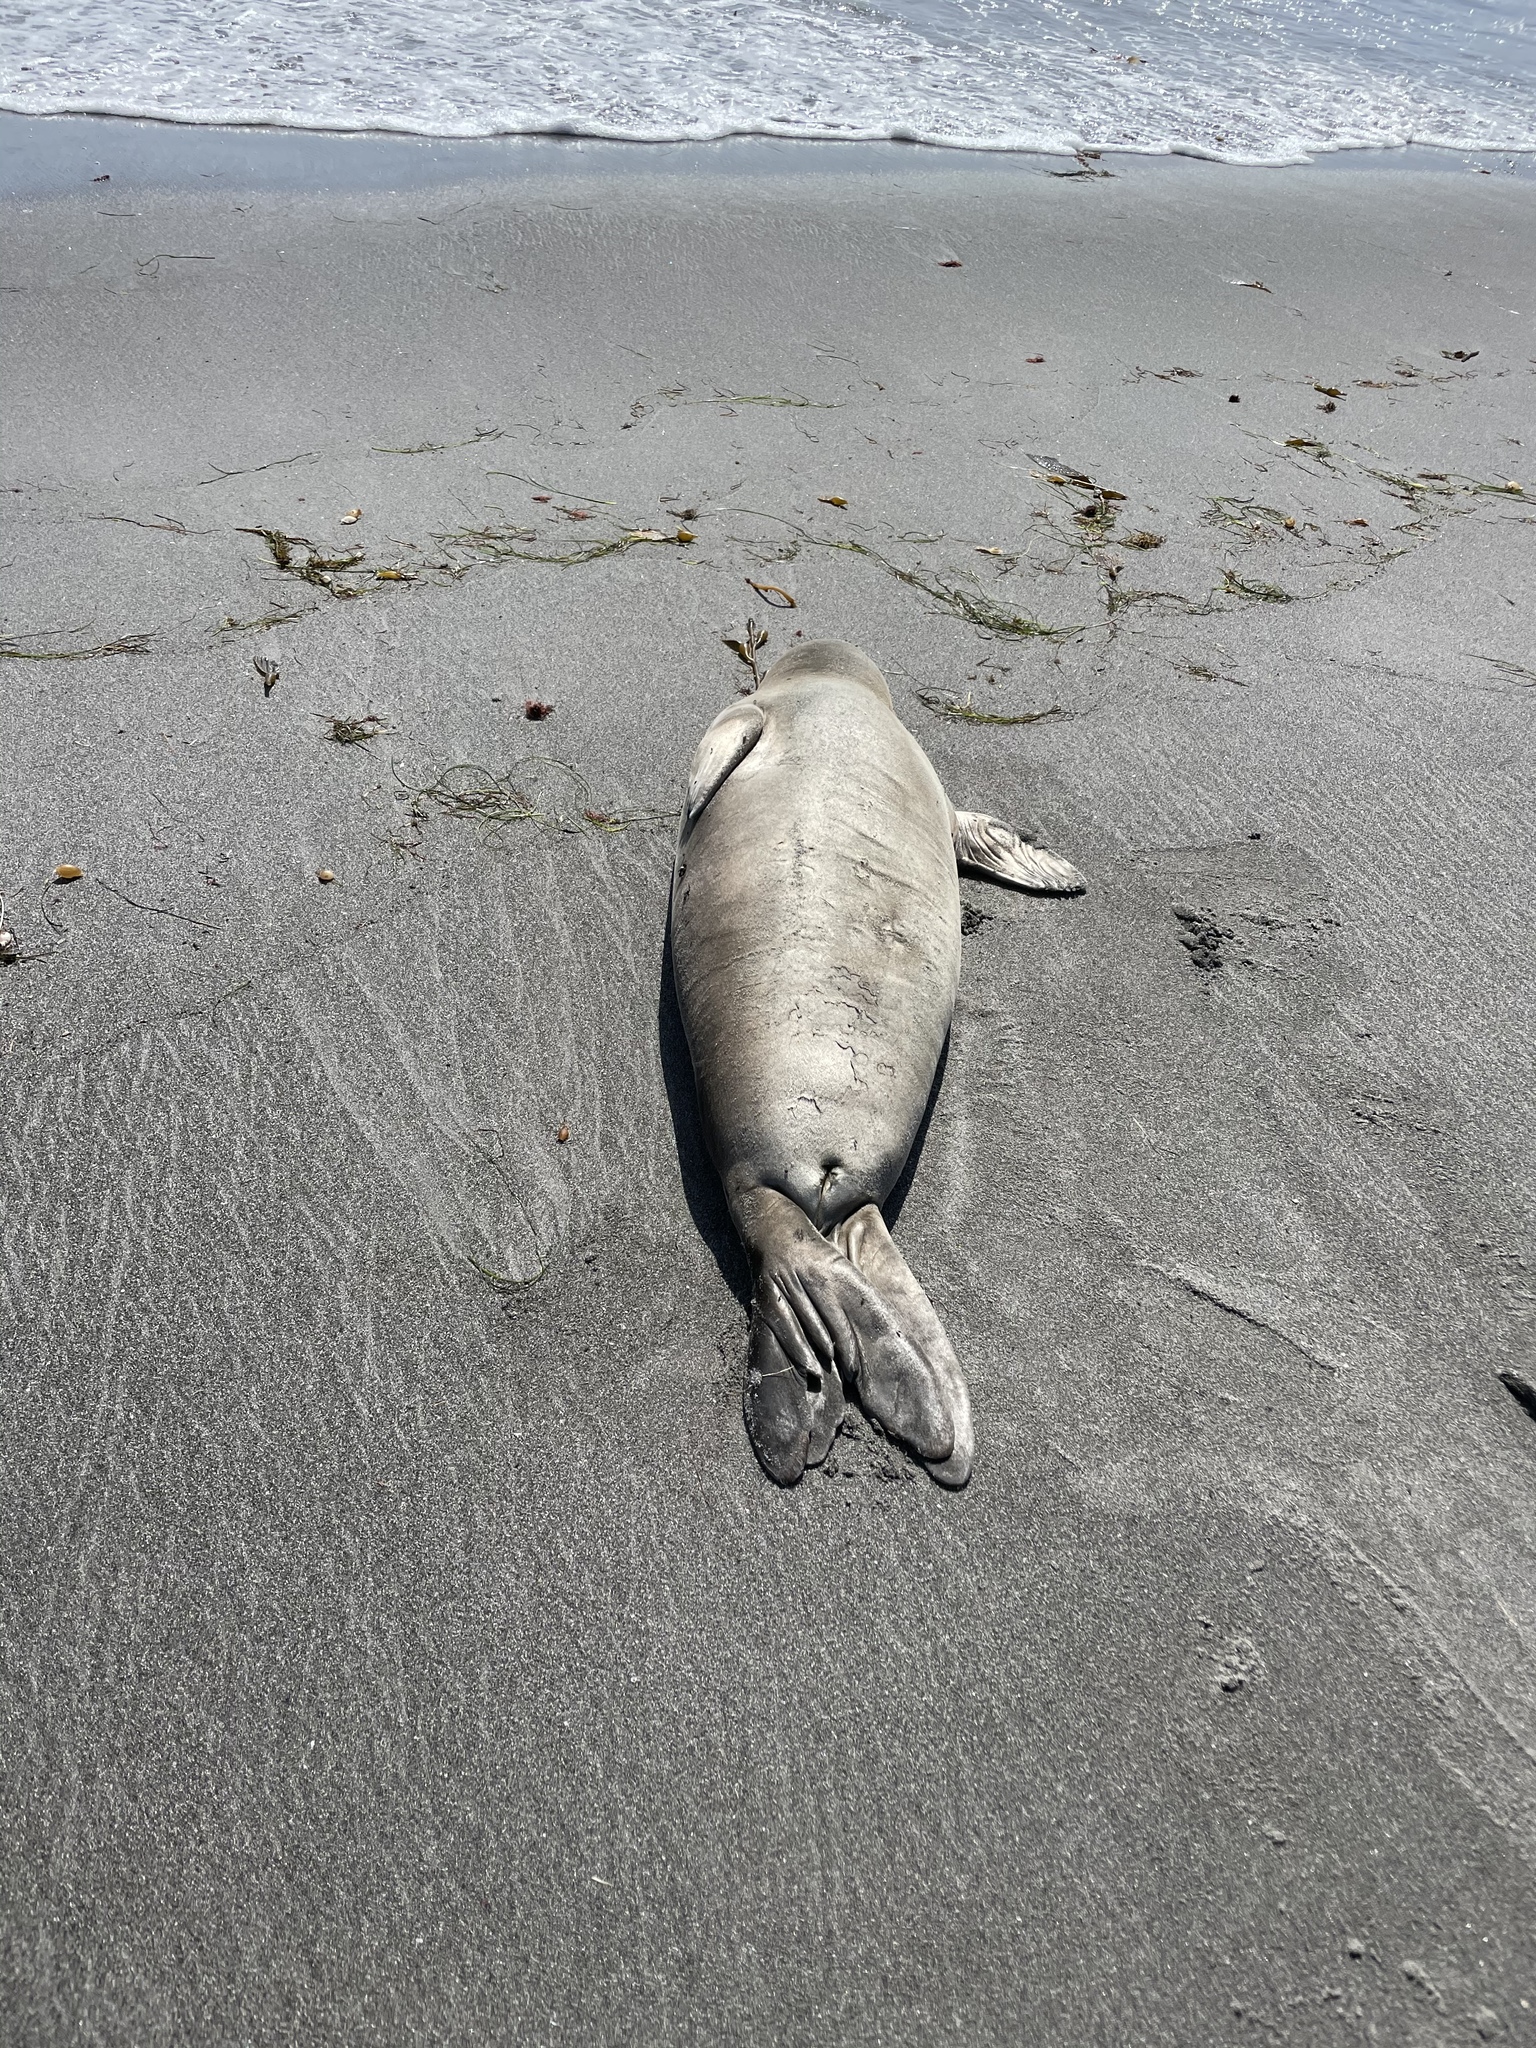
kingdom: Animalia
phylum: Chordata
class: Mammalia
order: Carnivora
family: Phocidae
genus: Mirounga
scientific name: Mirounga angustirostris
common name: Northern elephant seal
